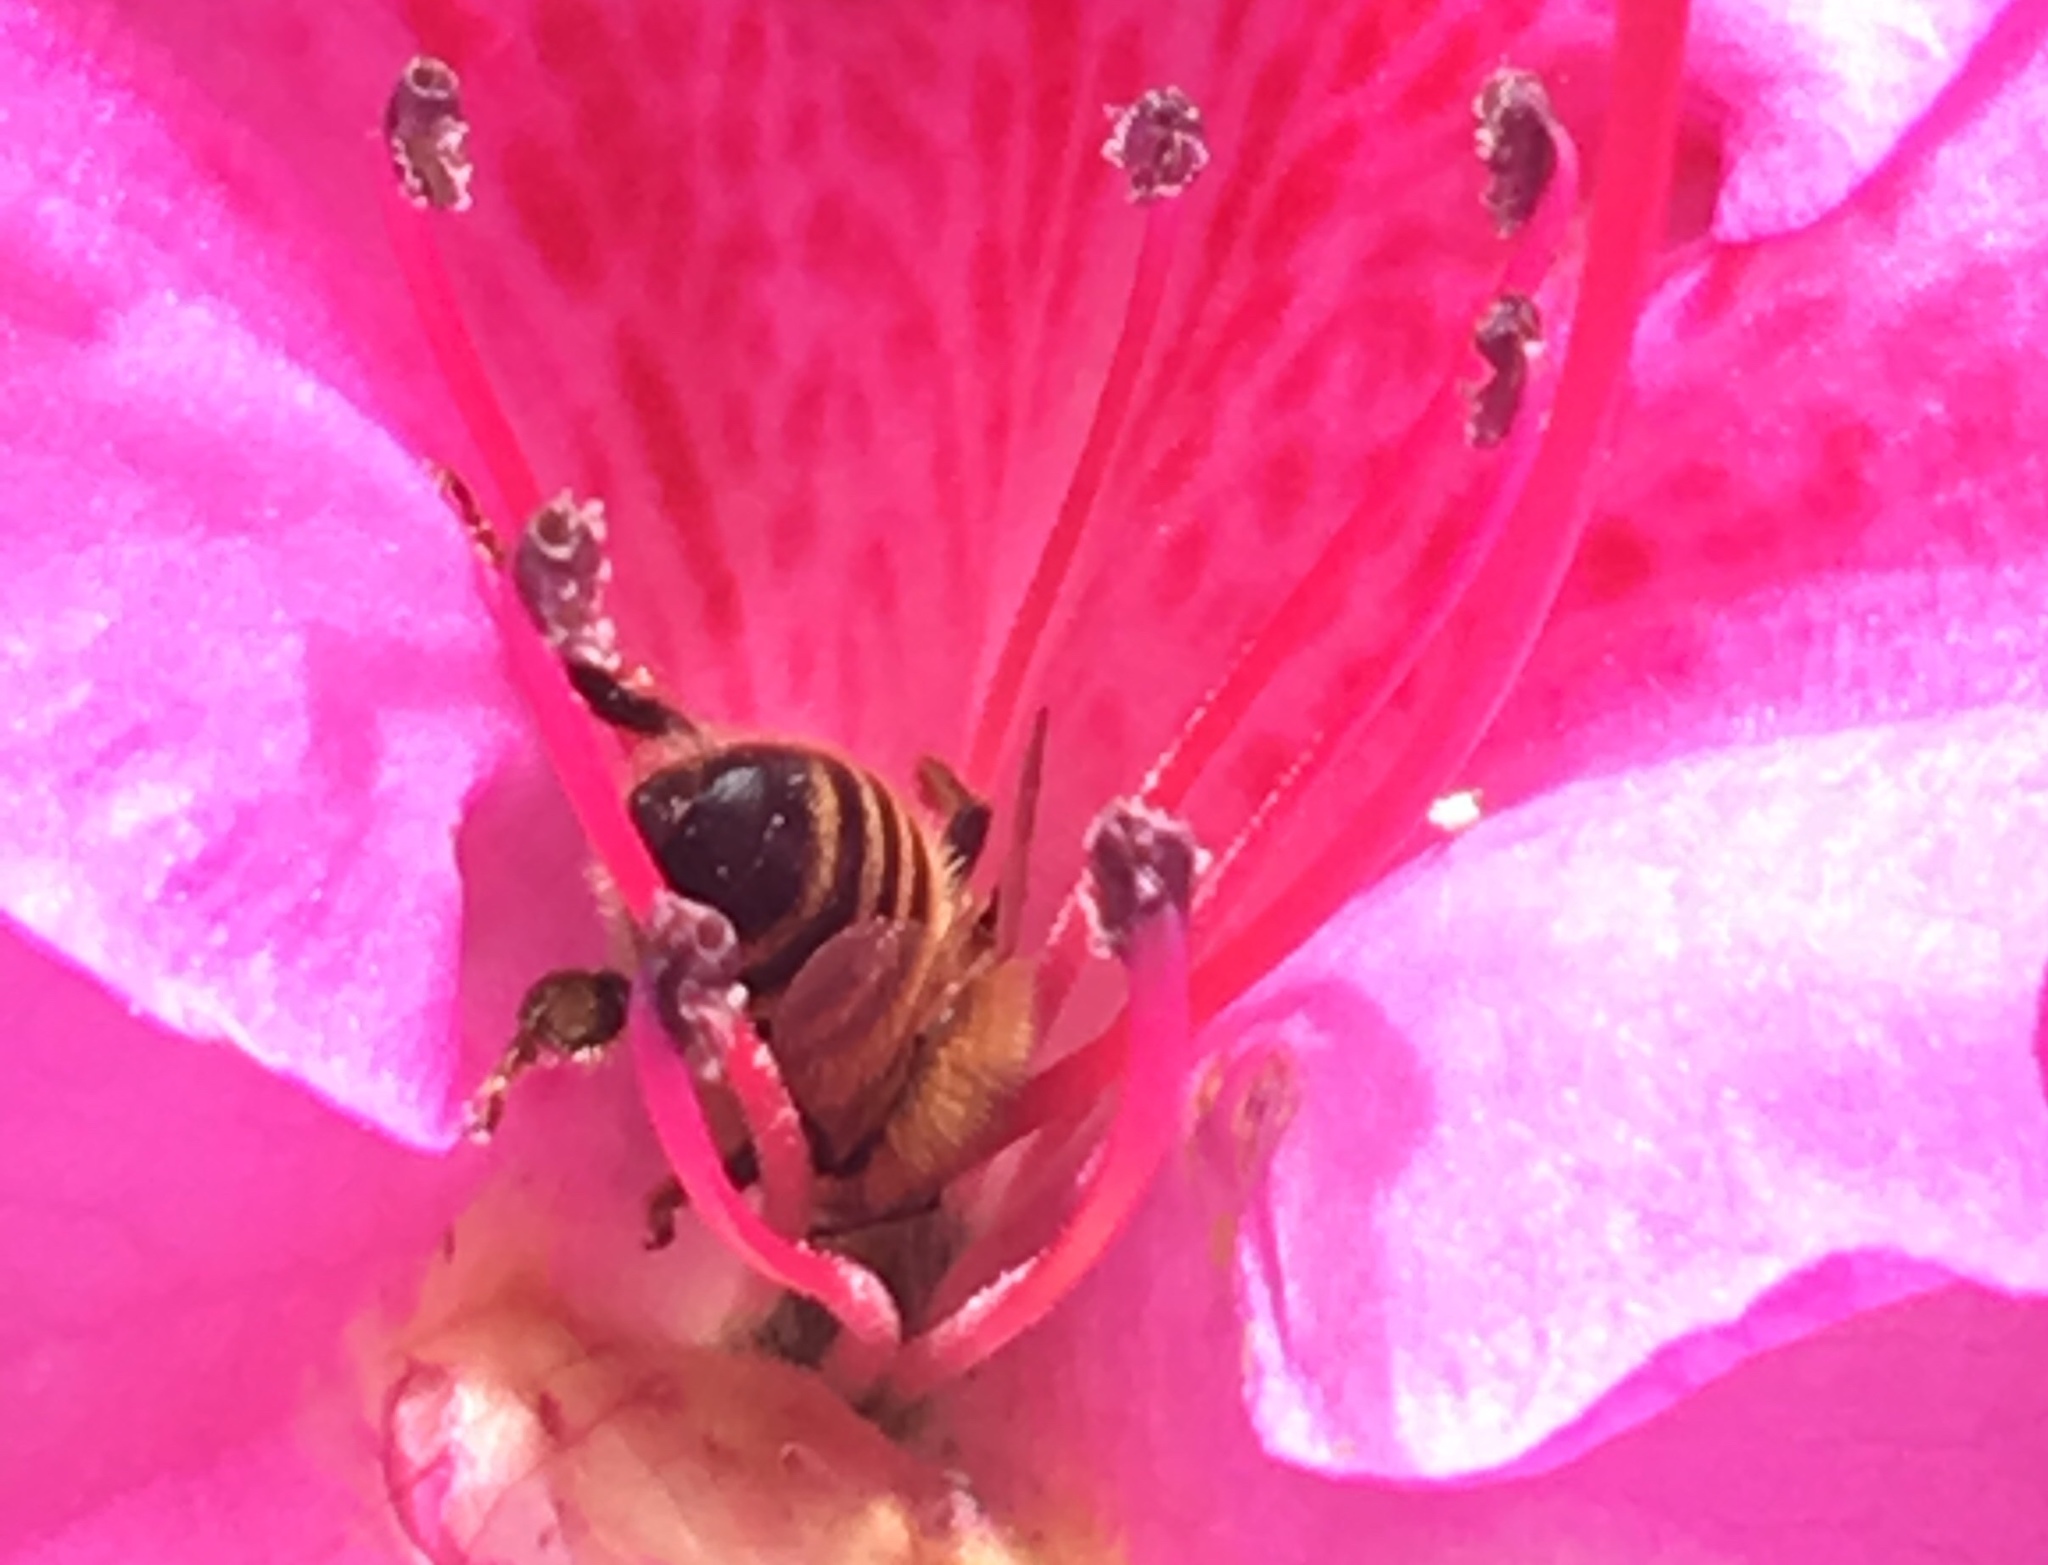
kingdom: Animalia
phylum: Arthropoda
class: Insecta
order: Hymenoptera
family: Apidae
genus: Apis
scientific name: Apis mellifera
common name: Honey bee
